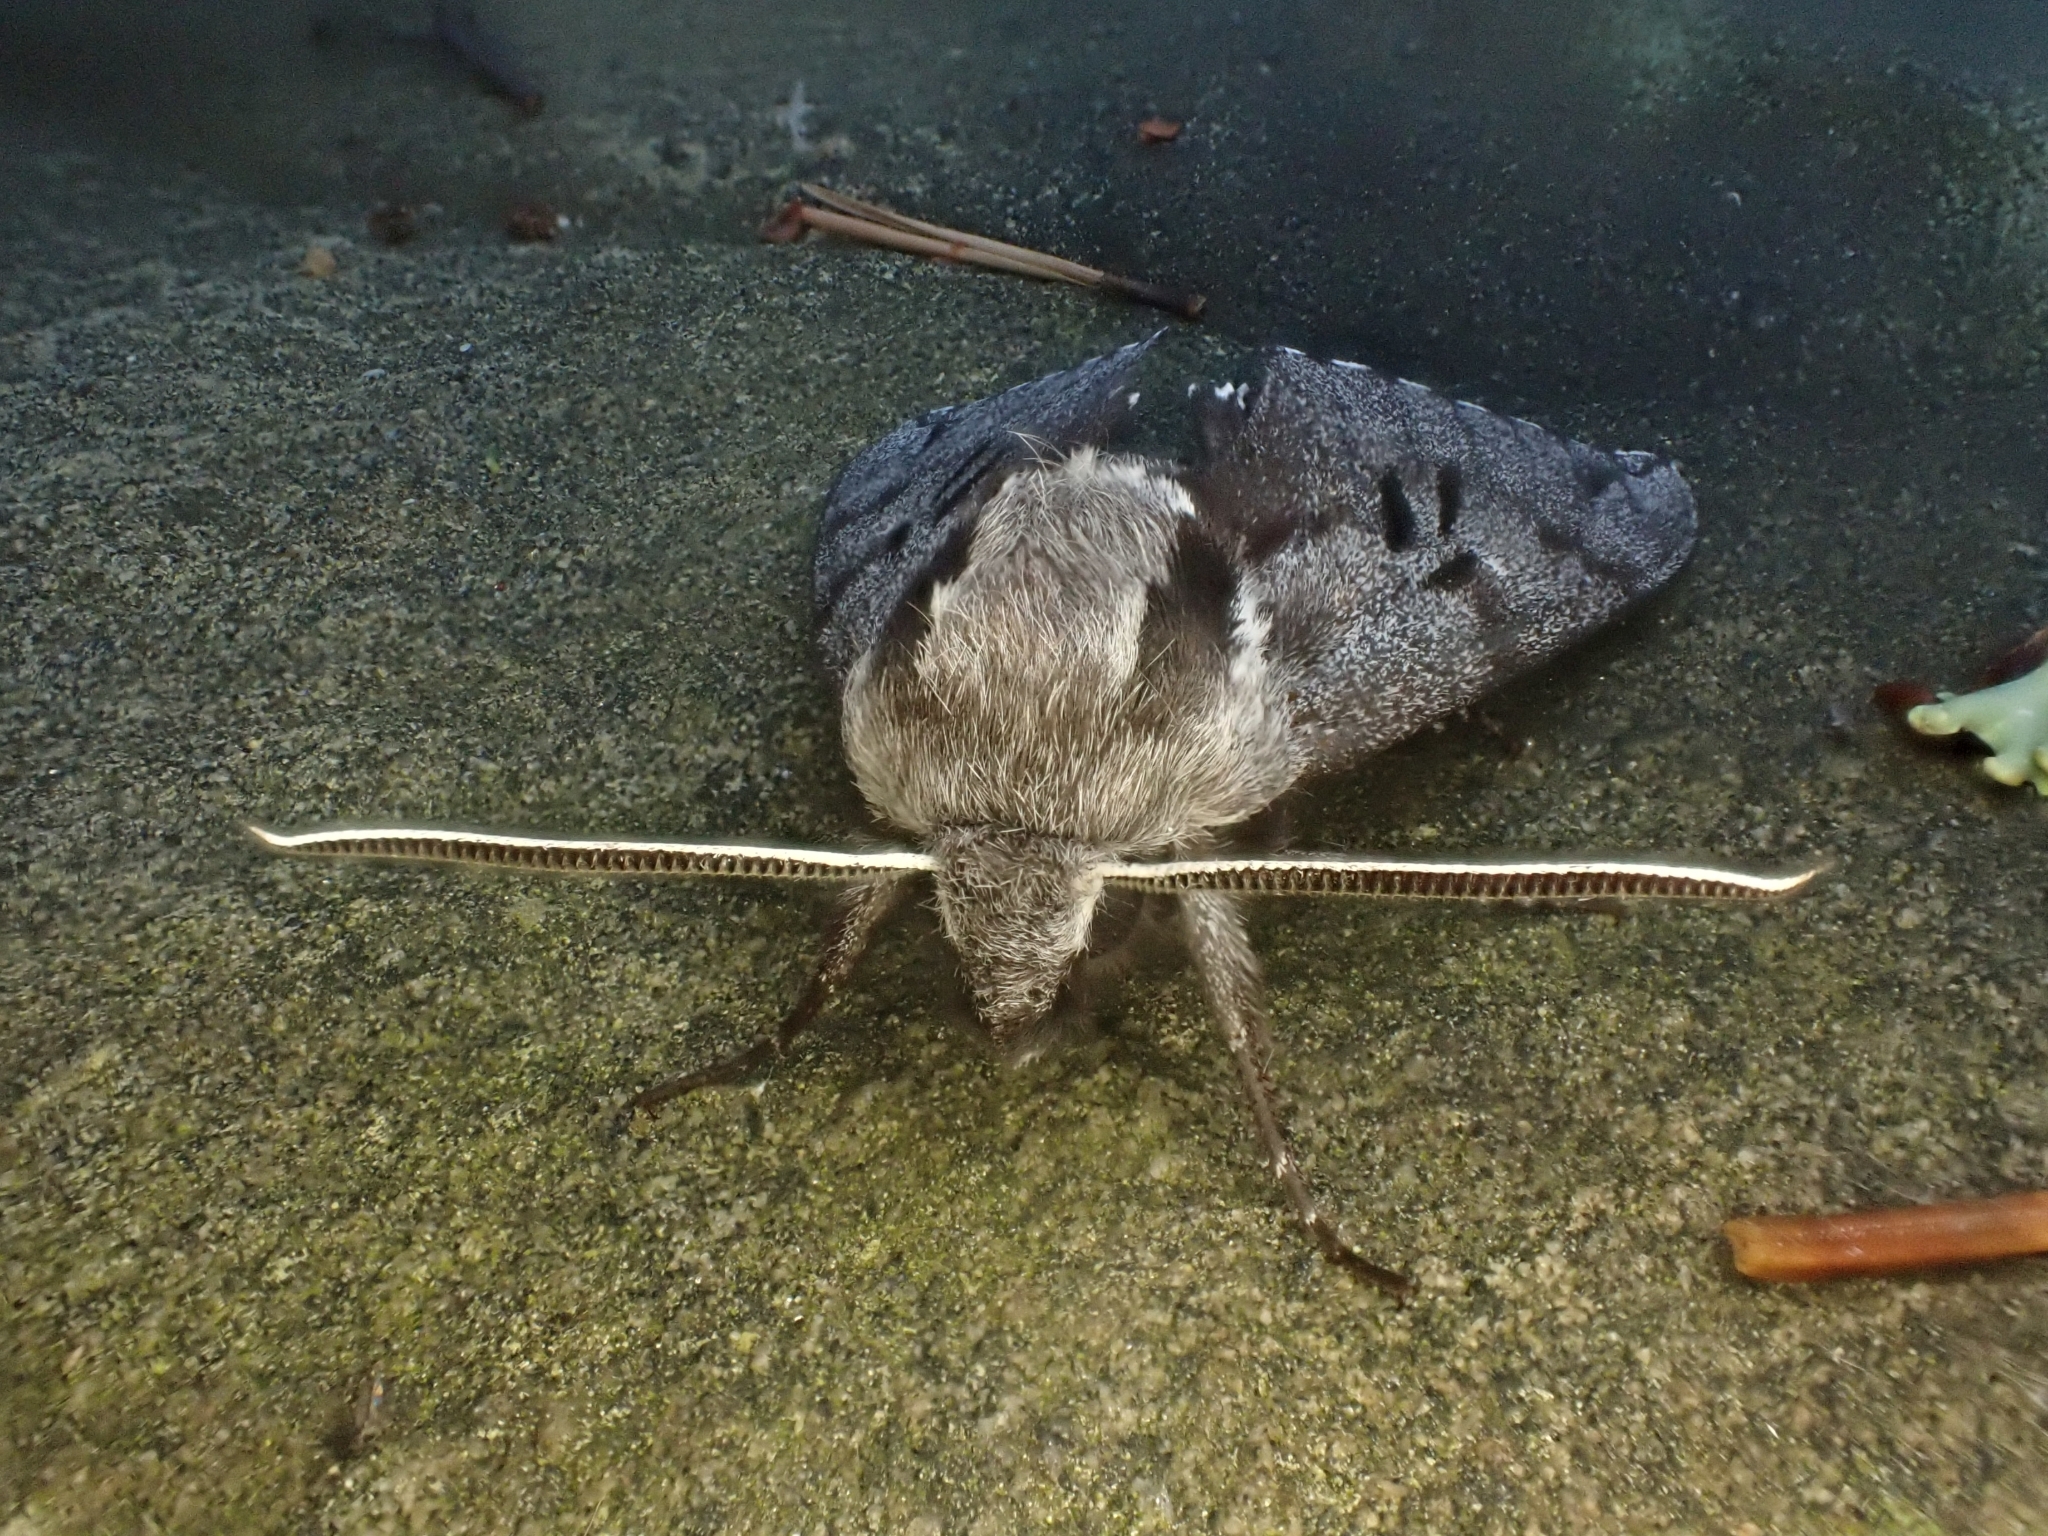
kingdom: Animalia
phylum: Arthropoda
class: Insecta
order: Lepidoptera
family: Sphingidae
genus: Sphinx
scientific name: Sphinx pinastri
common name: Pine hawk-moth
